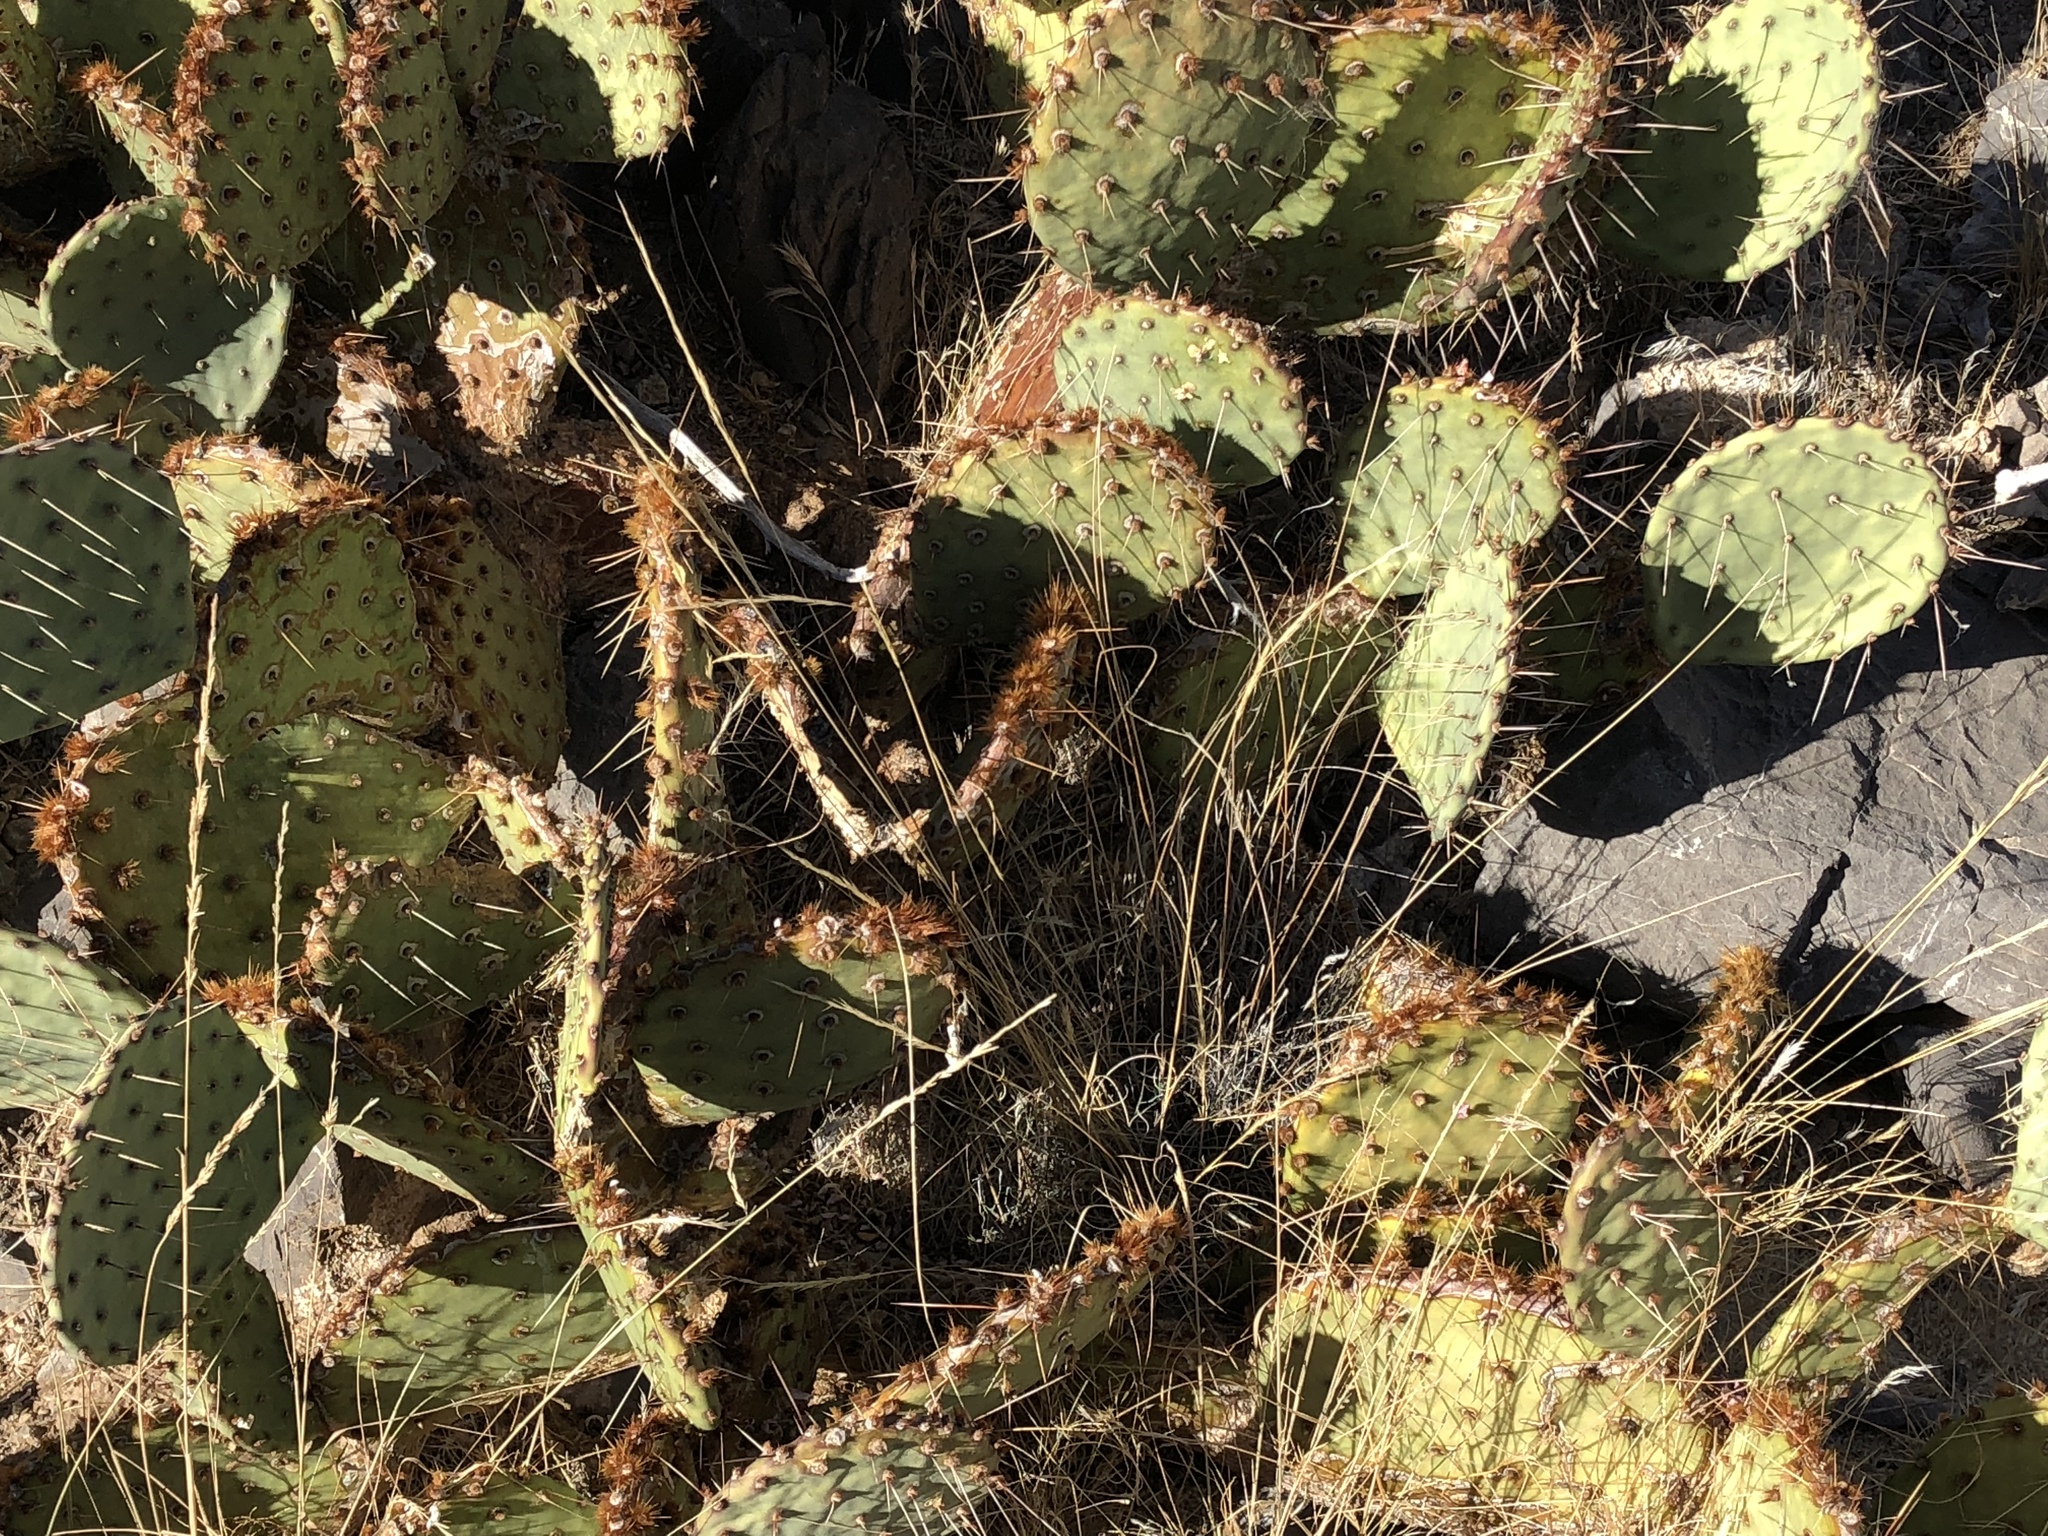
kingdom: Plantae
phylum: Tracheophyta
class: Magnoliopsida
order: Caryophyllales
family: Cactaceae
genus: Opuntia
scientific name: Opuntia phaeacantha
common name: New mexico prickly-pear
